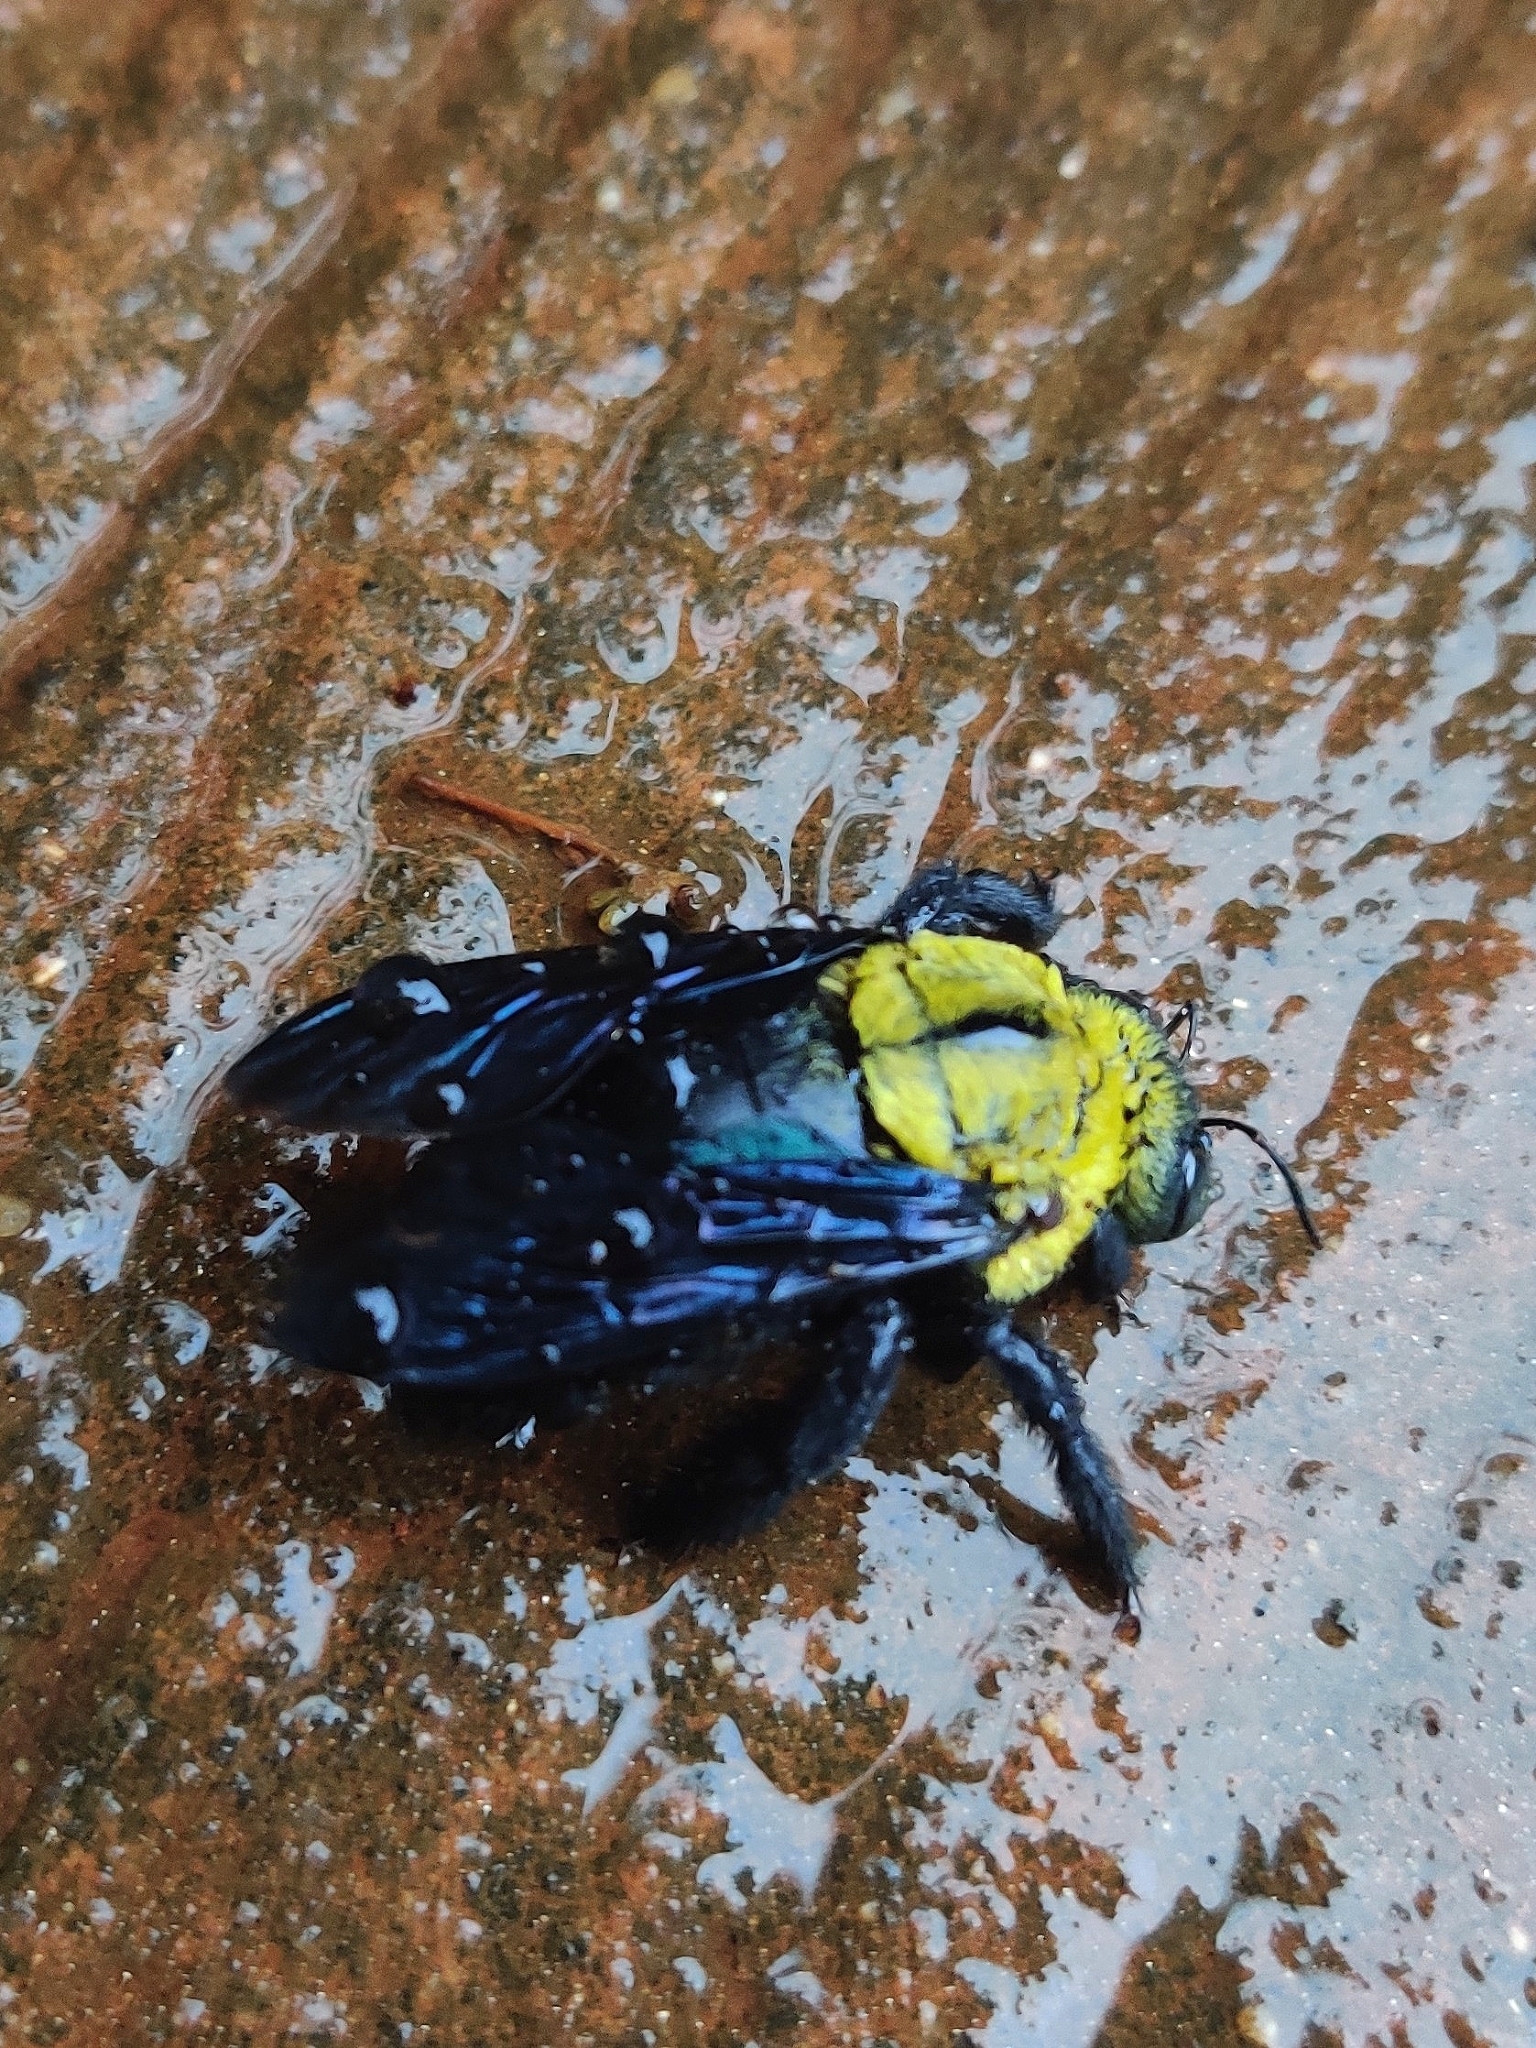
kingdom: Animalia
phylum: Arthropoda
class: Insecta
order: Hymenoptera
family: Apidae
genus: Xylocopa
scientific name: Xylocopa ruficornis
